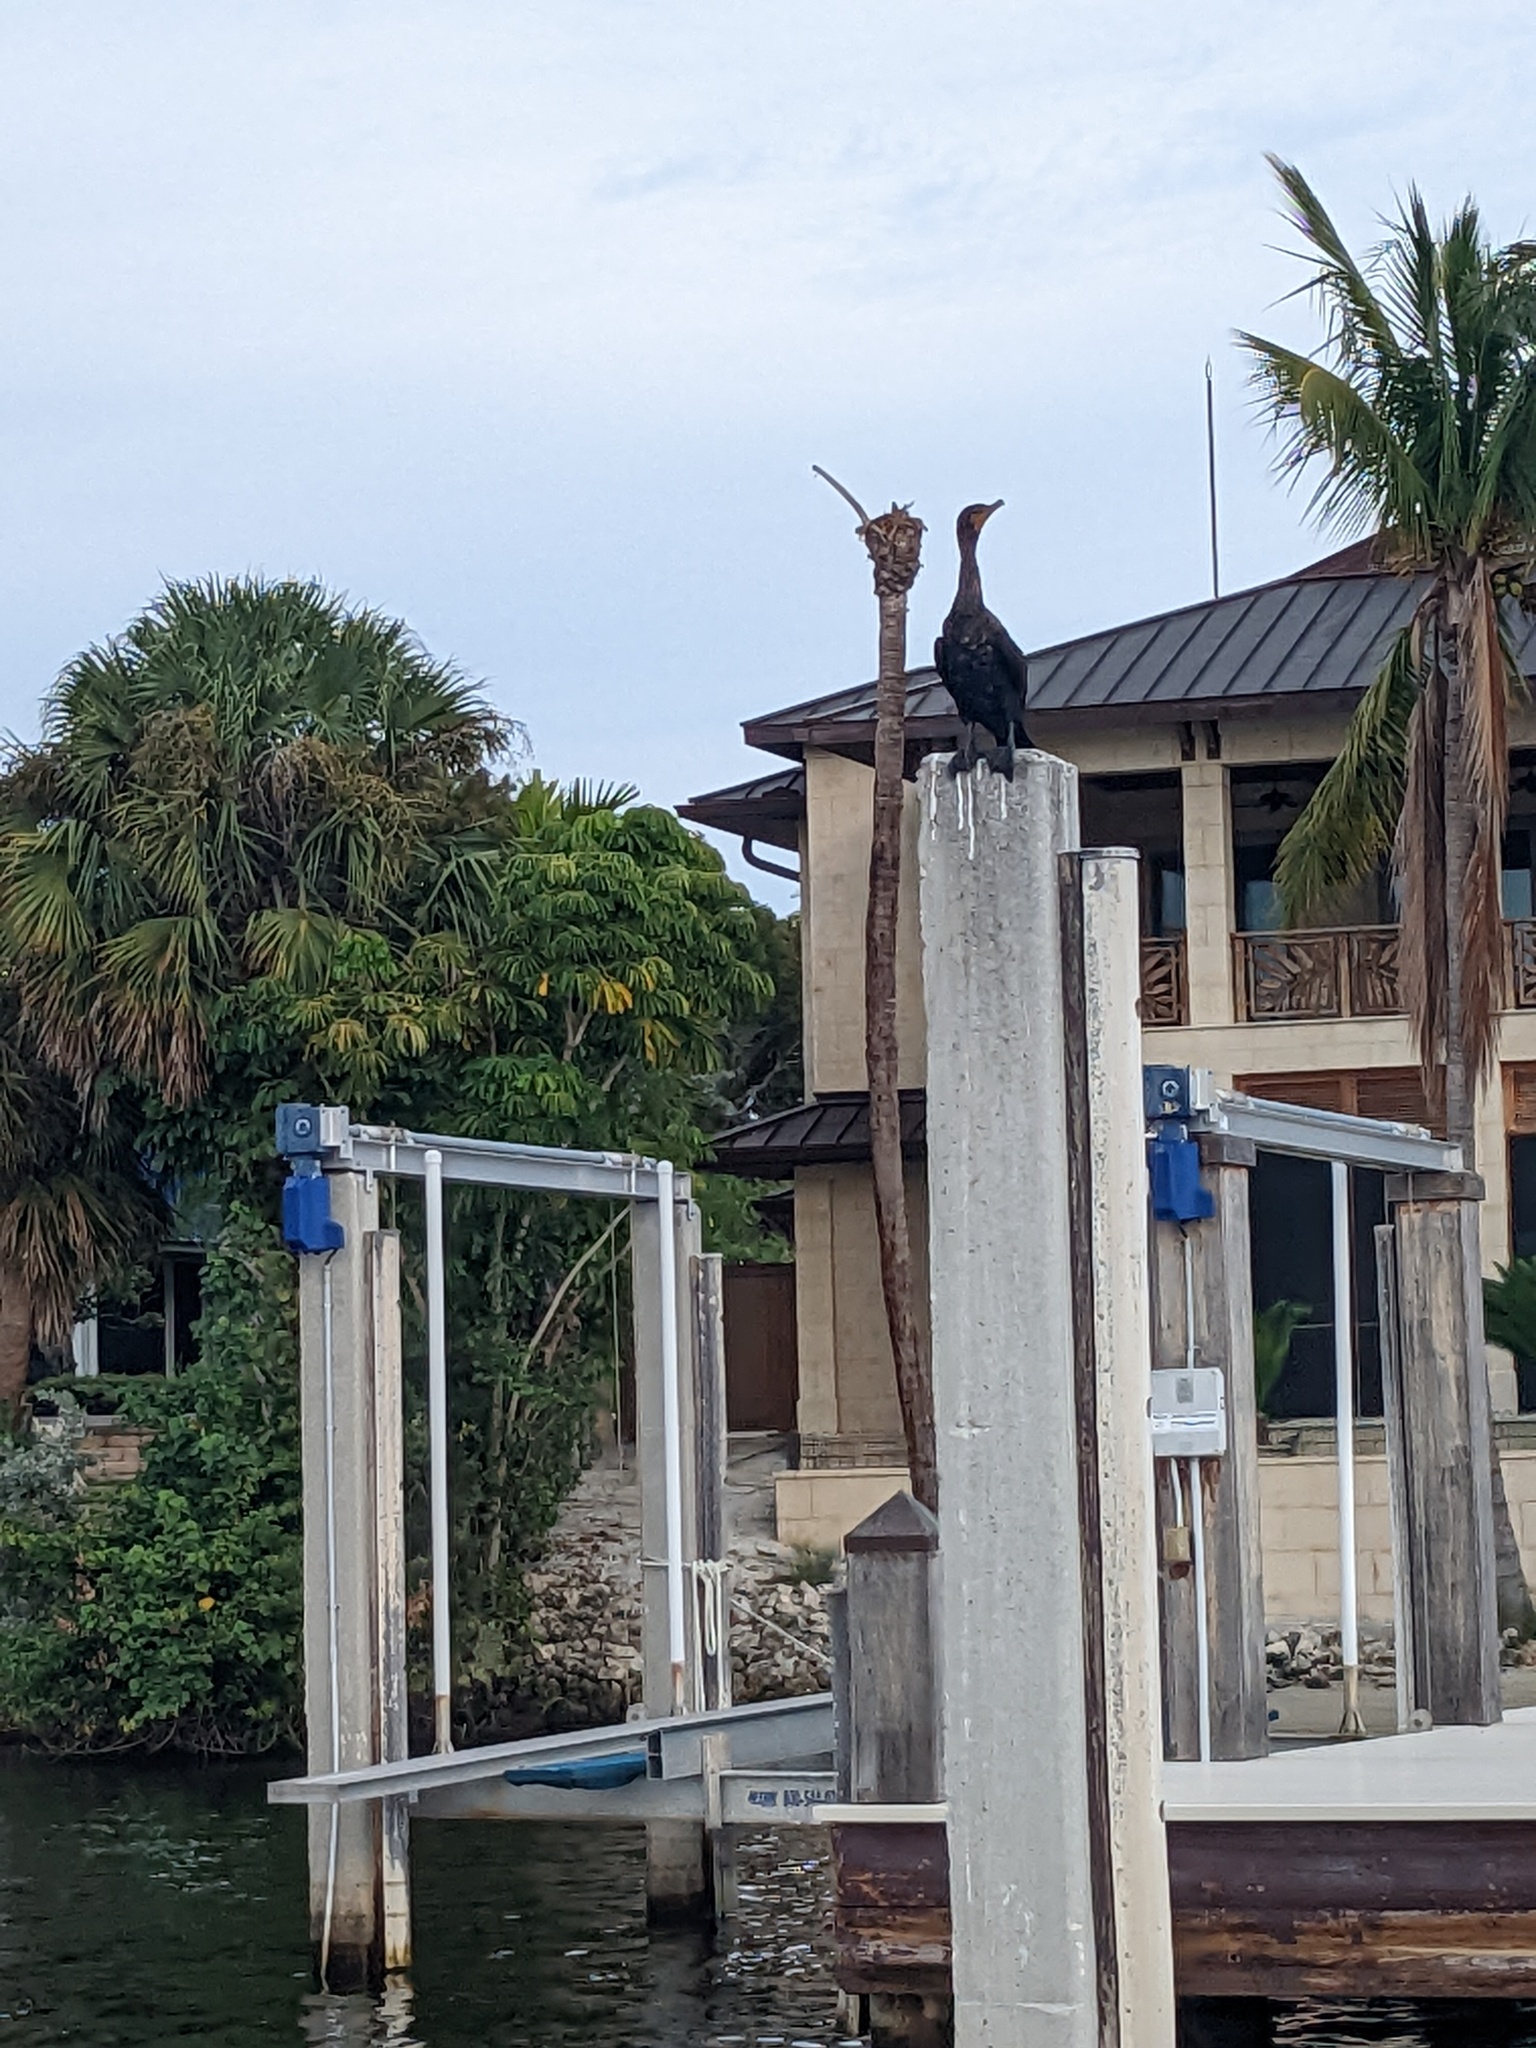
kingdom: Animalia
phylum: Chordata
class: Aves
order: Suliformes
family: Phalacrocoracidae
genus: Phalacrocorax
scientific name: Phalacrocorax auritus
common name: Double-crested cormorant
